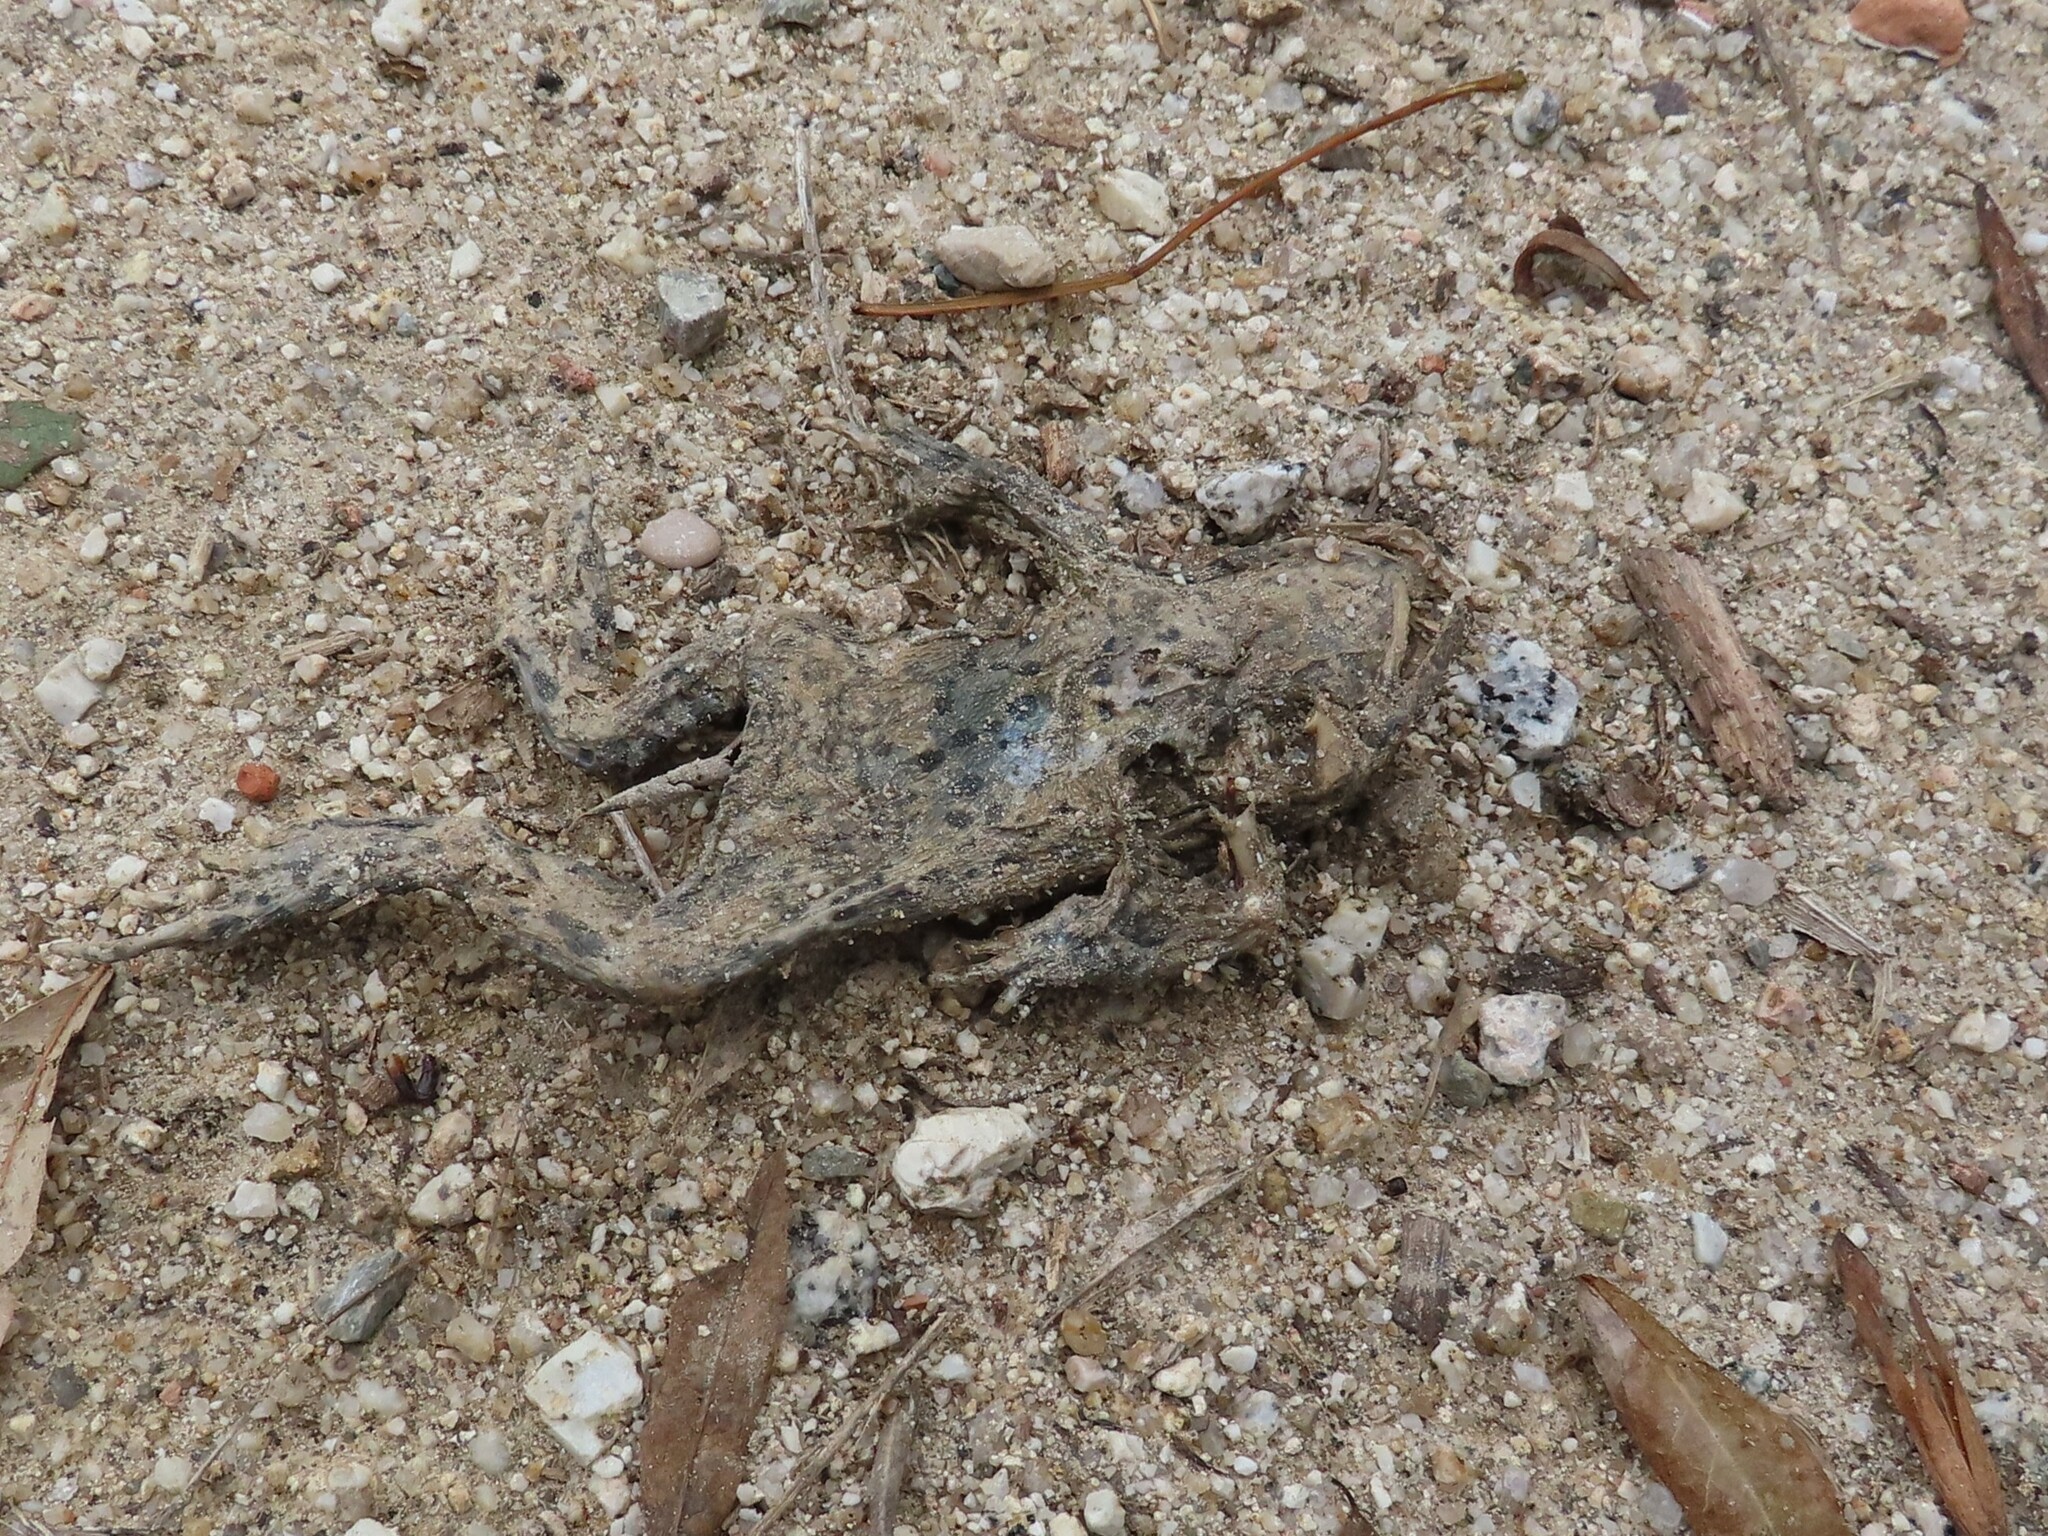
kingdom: Animalia
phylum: Chordata
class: Amphibia
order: Anura
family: Bufonidae
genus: Epidalea
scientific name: Epidalea calamita
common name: Natterjack toad
